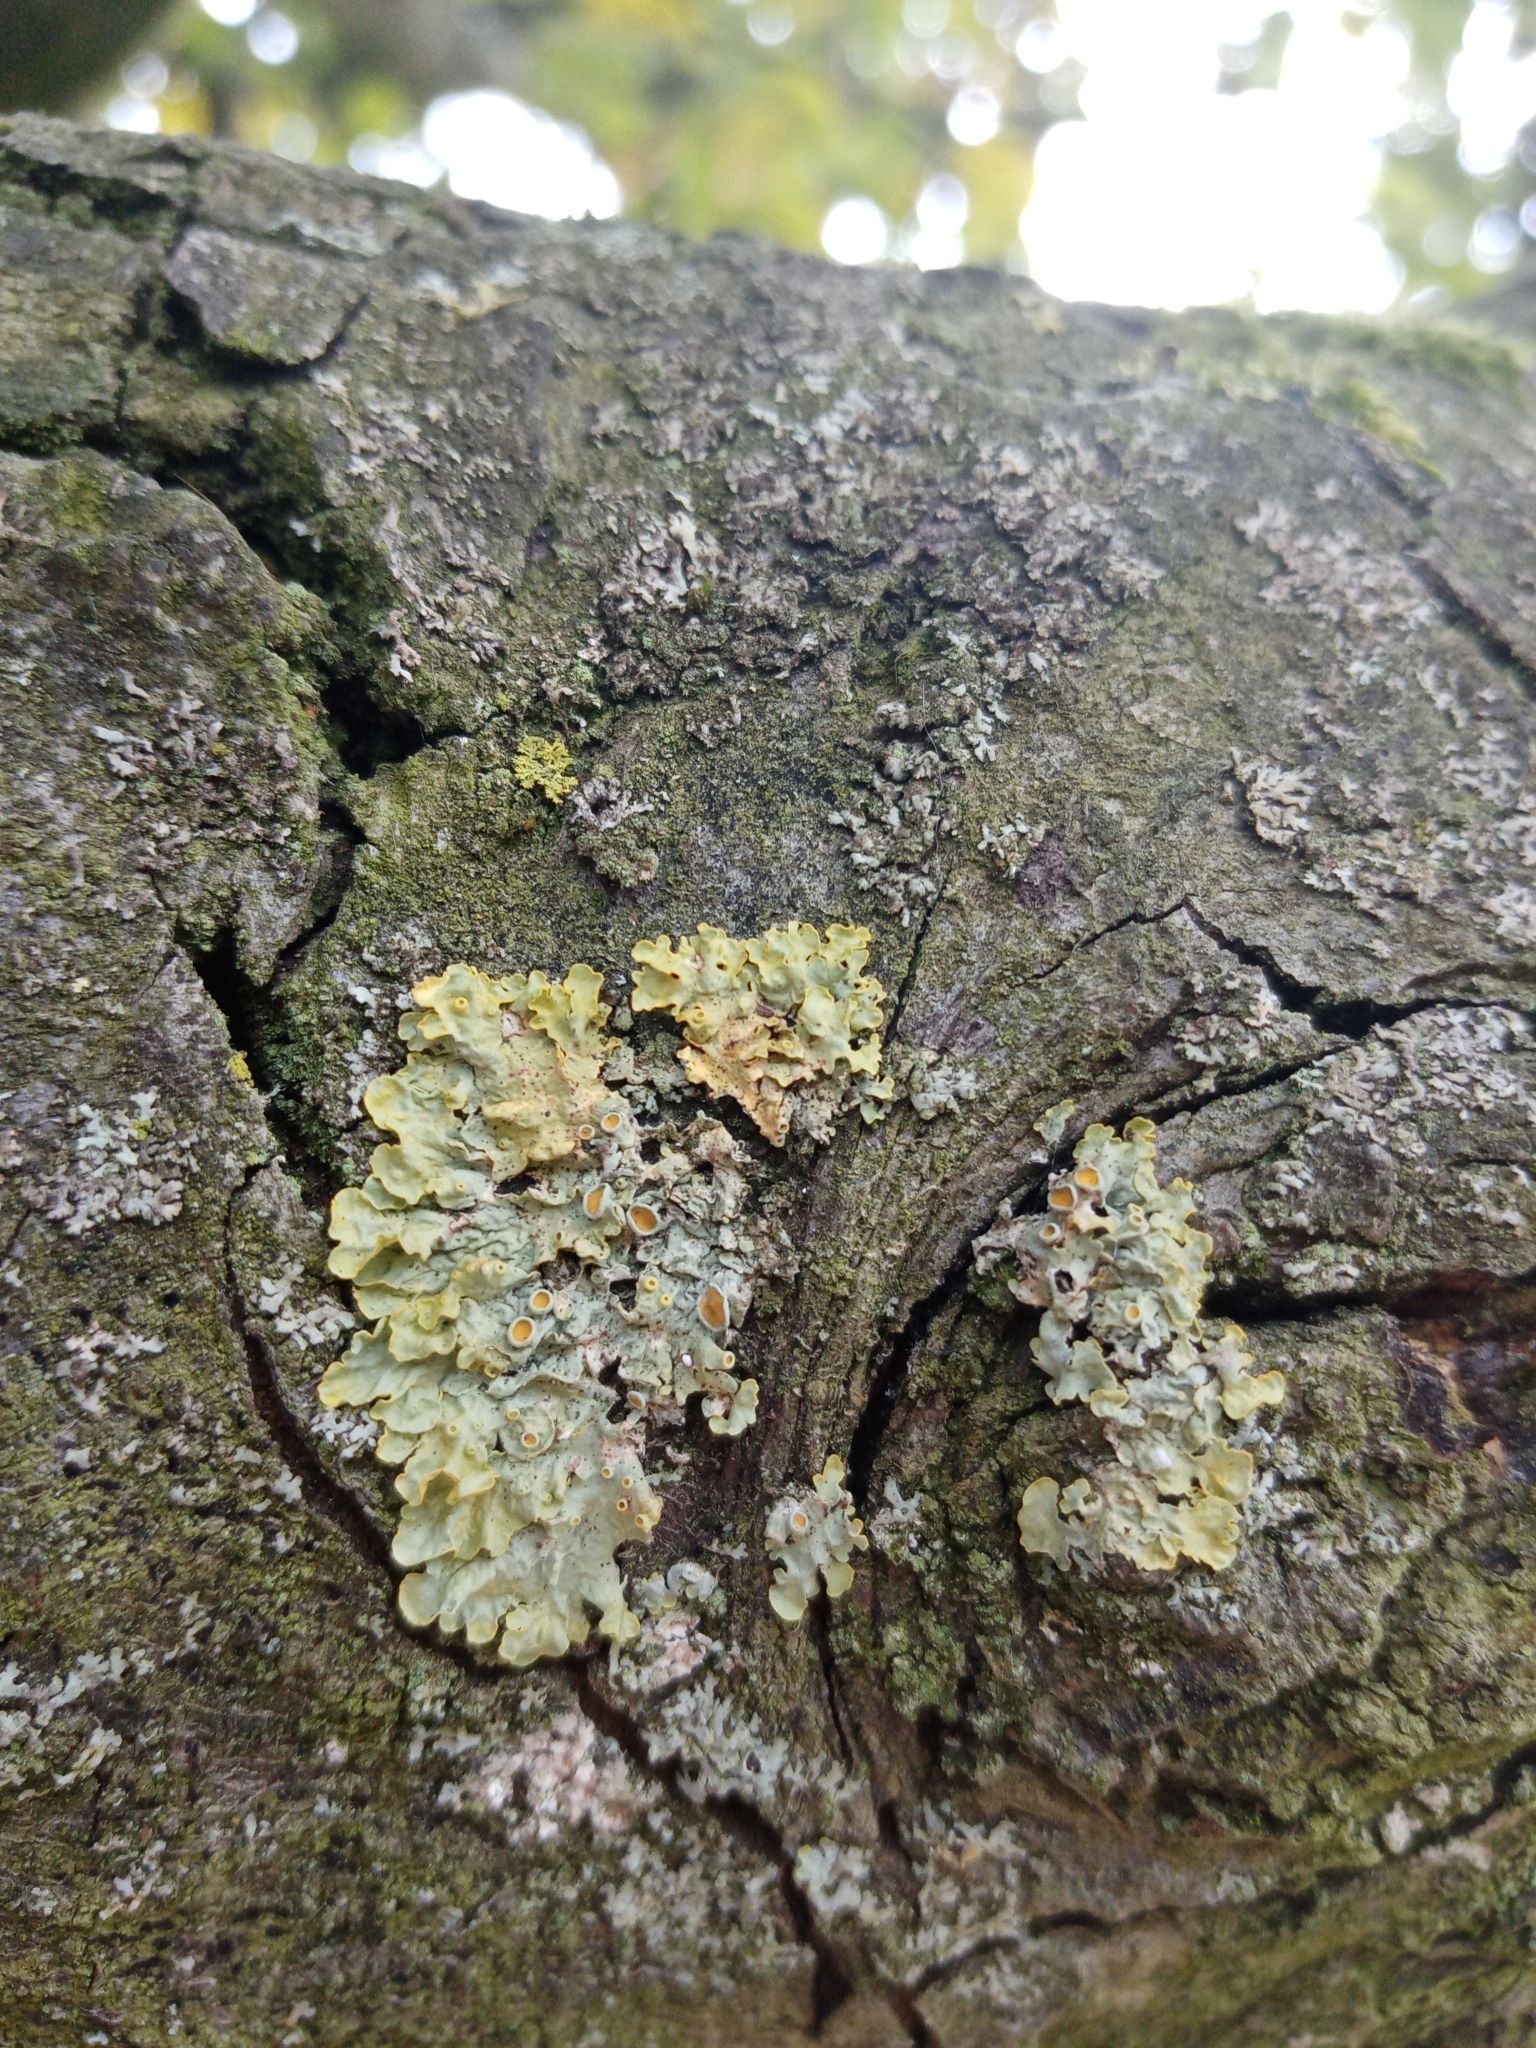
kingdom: Fungi
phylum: Ascomycota
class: Lecanoromycetes
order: Teloschistales
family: Teloschistaceae
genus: Xanthoria
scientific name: Xanthoria parietina
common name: Common orange lichen
